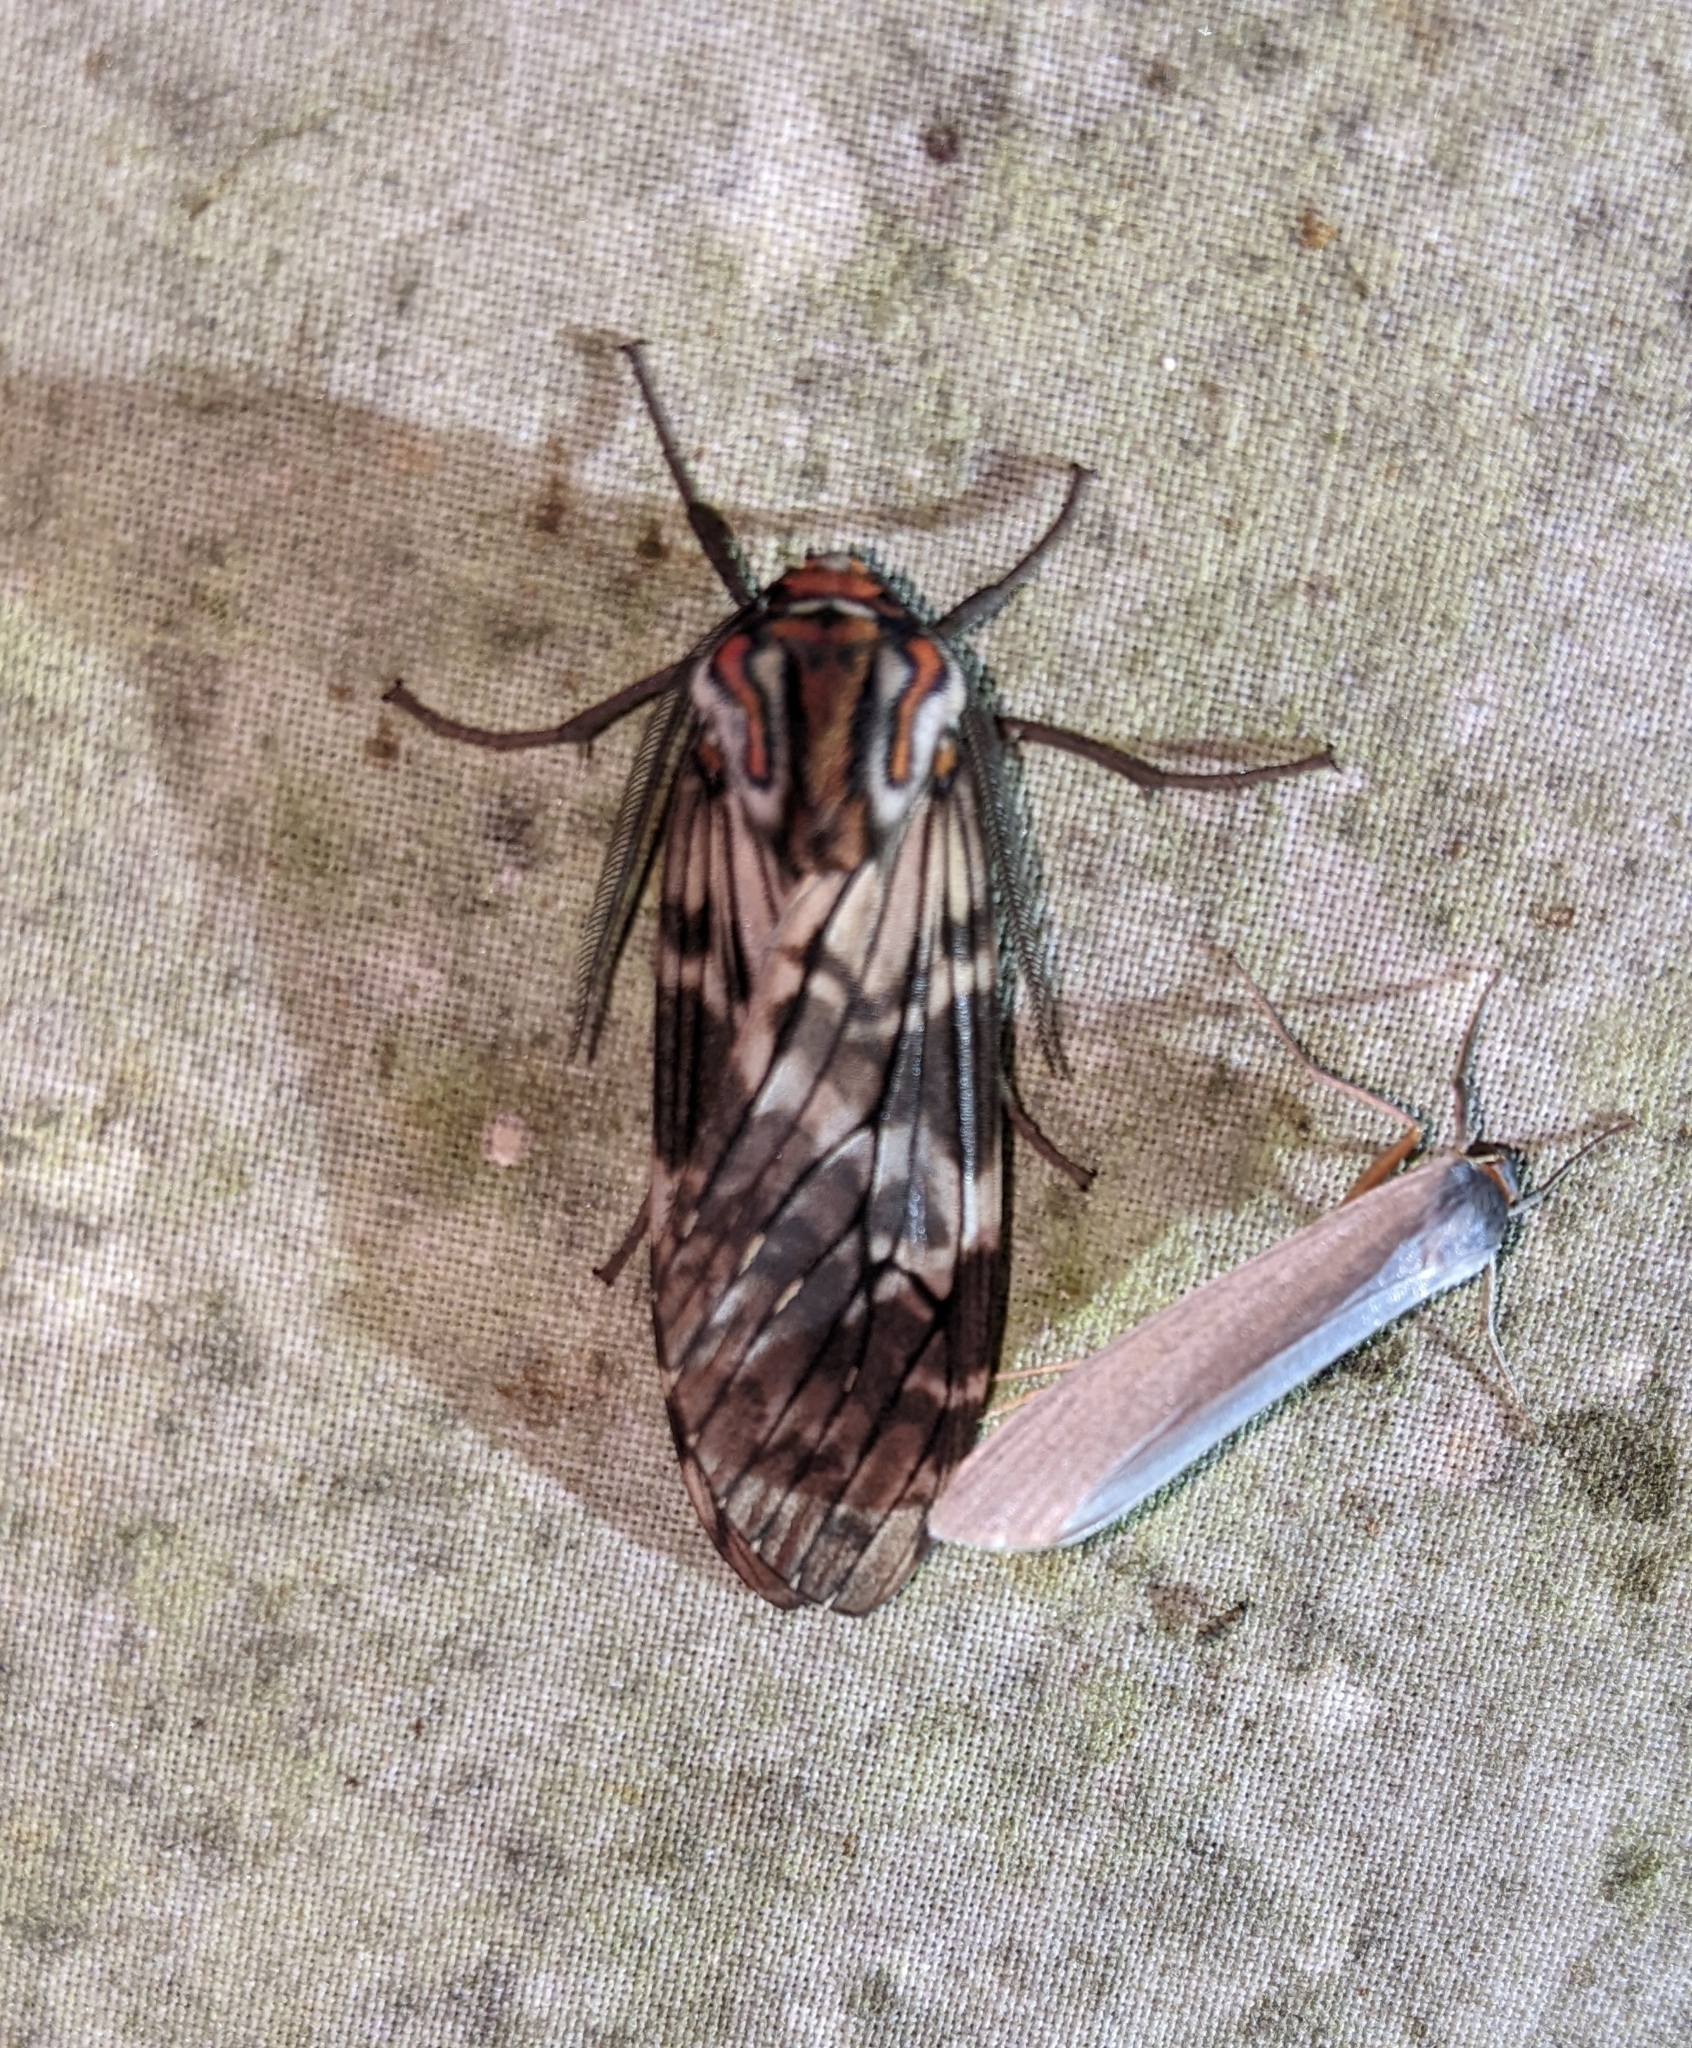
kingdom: Animalia
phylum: Arthropoda
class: Insecta
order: Lepidoptera
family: Erebidae
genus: Praemastus
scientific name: Praemastus minerva
